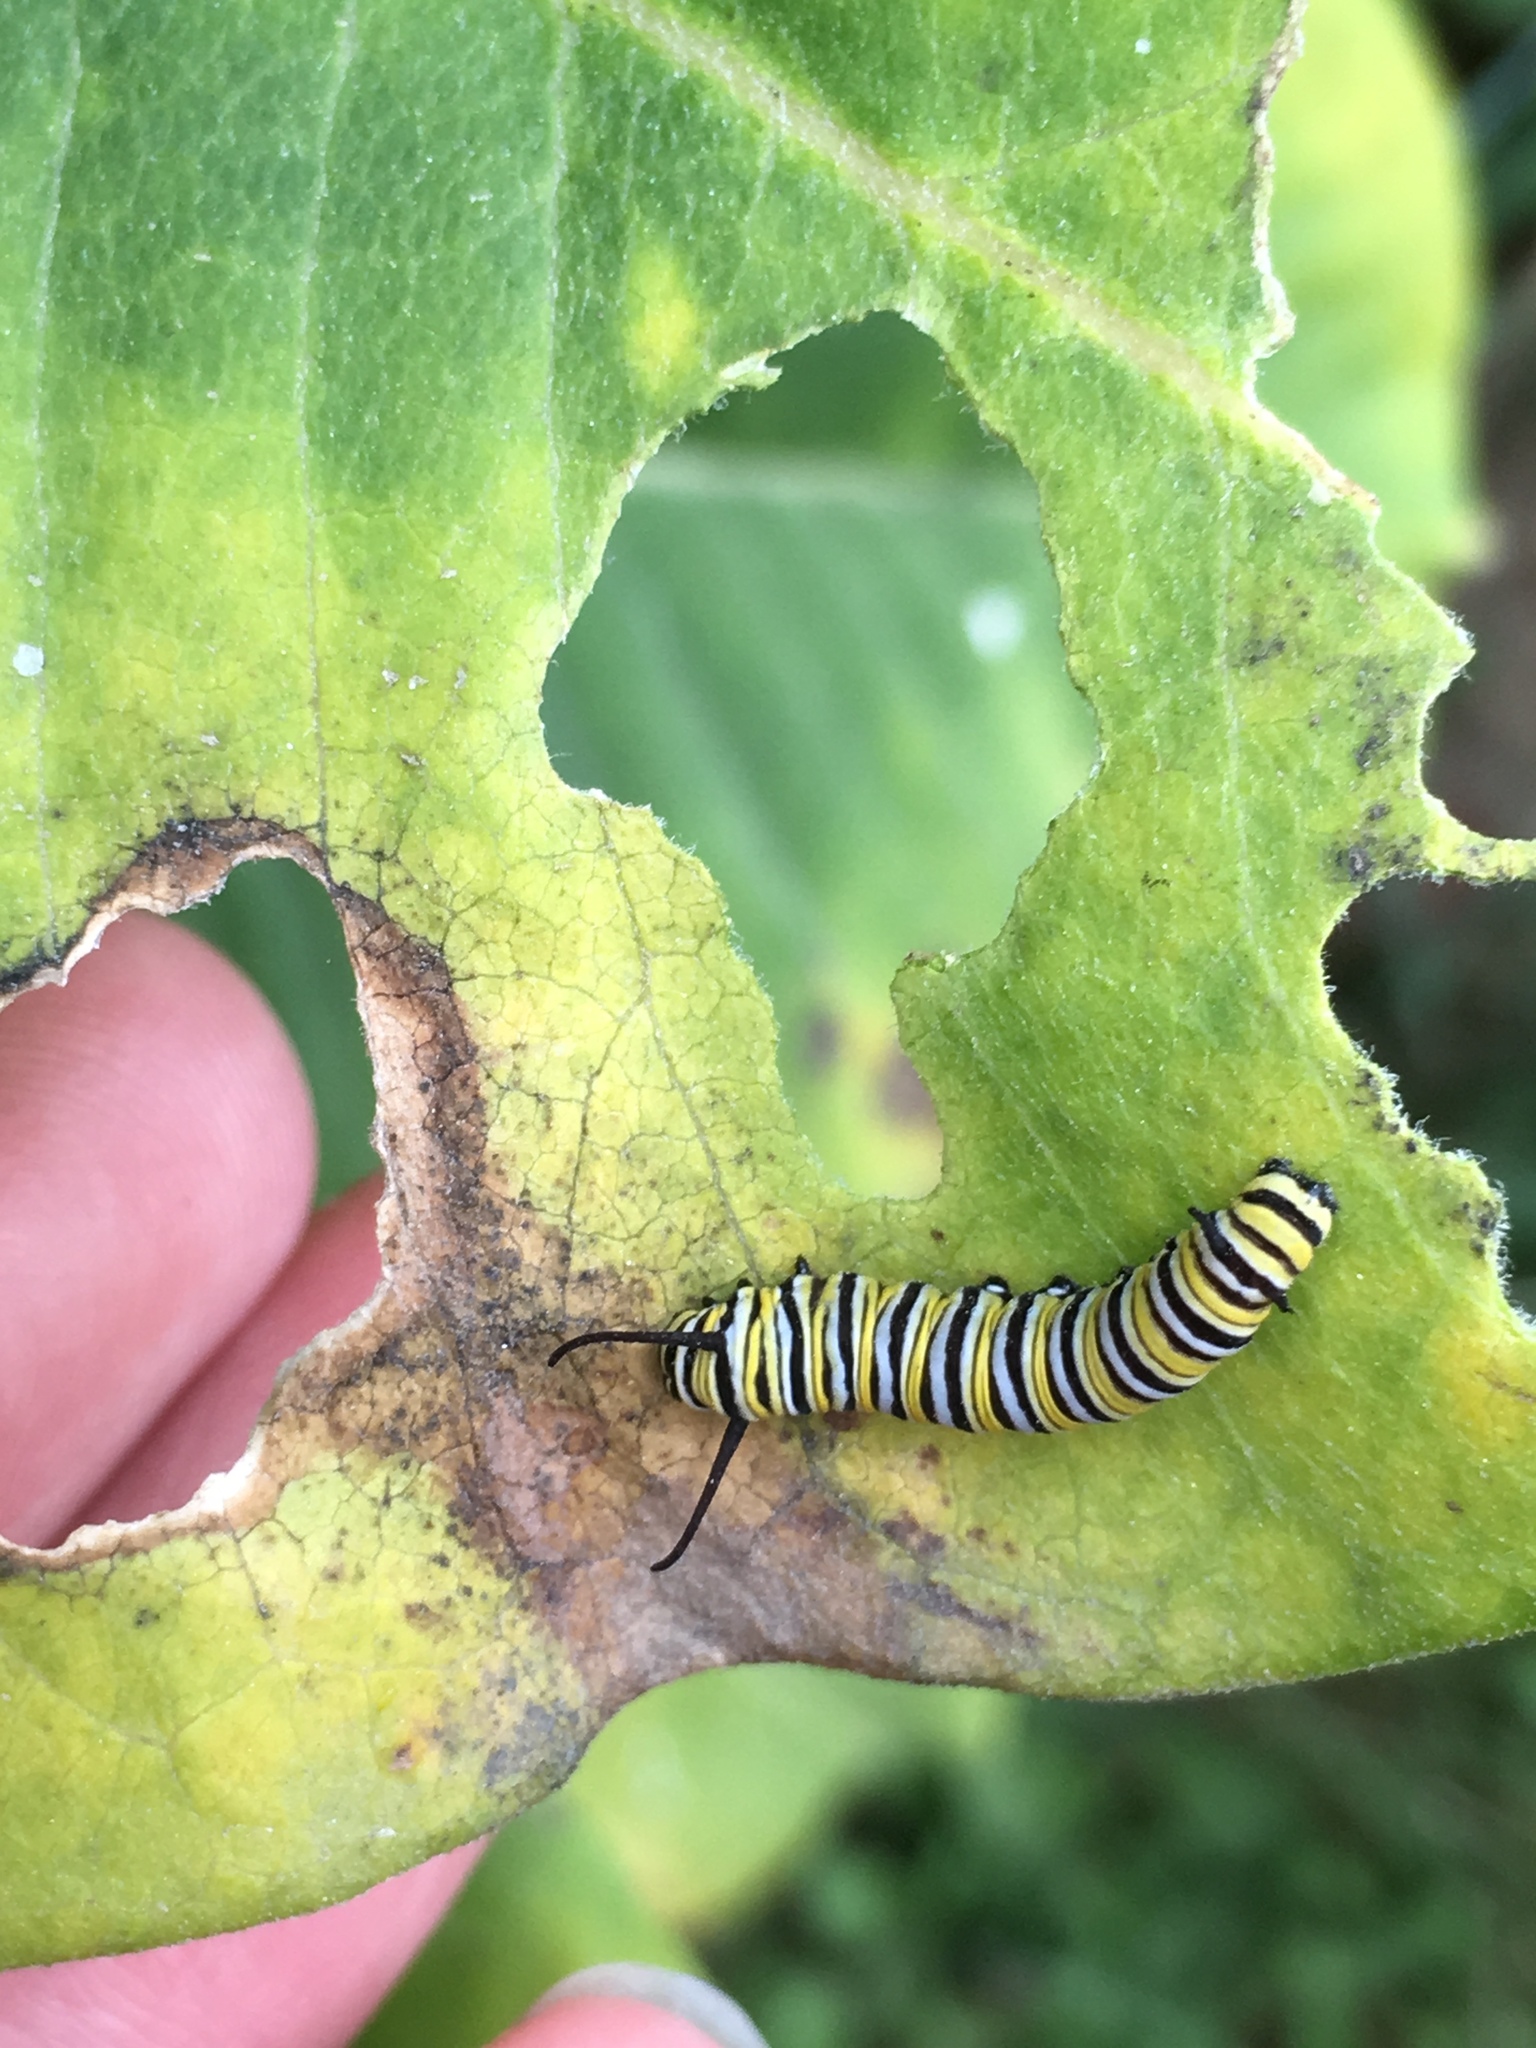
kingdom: Animalia
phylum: Arthropoda
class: Insecta
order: Lepidoptera
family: Nymphalidae
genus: Danaus
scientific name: Danaus plexippus
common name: Monarch
